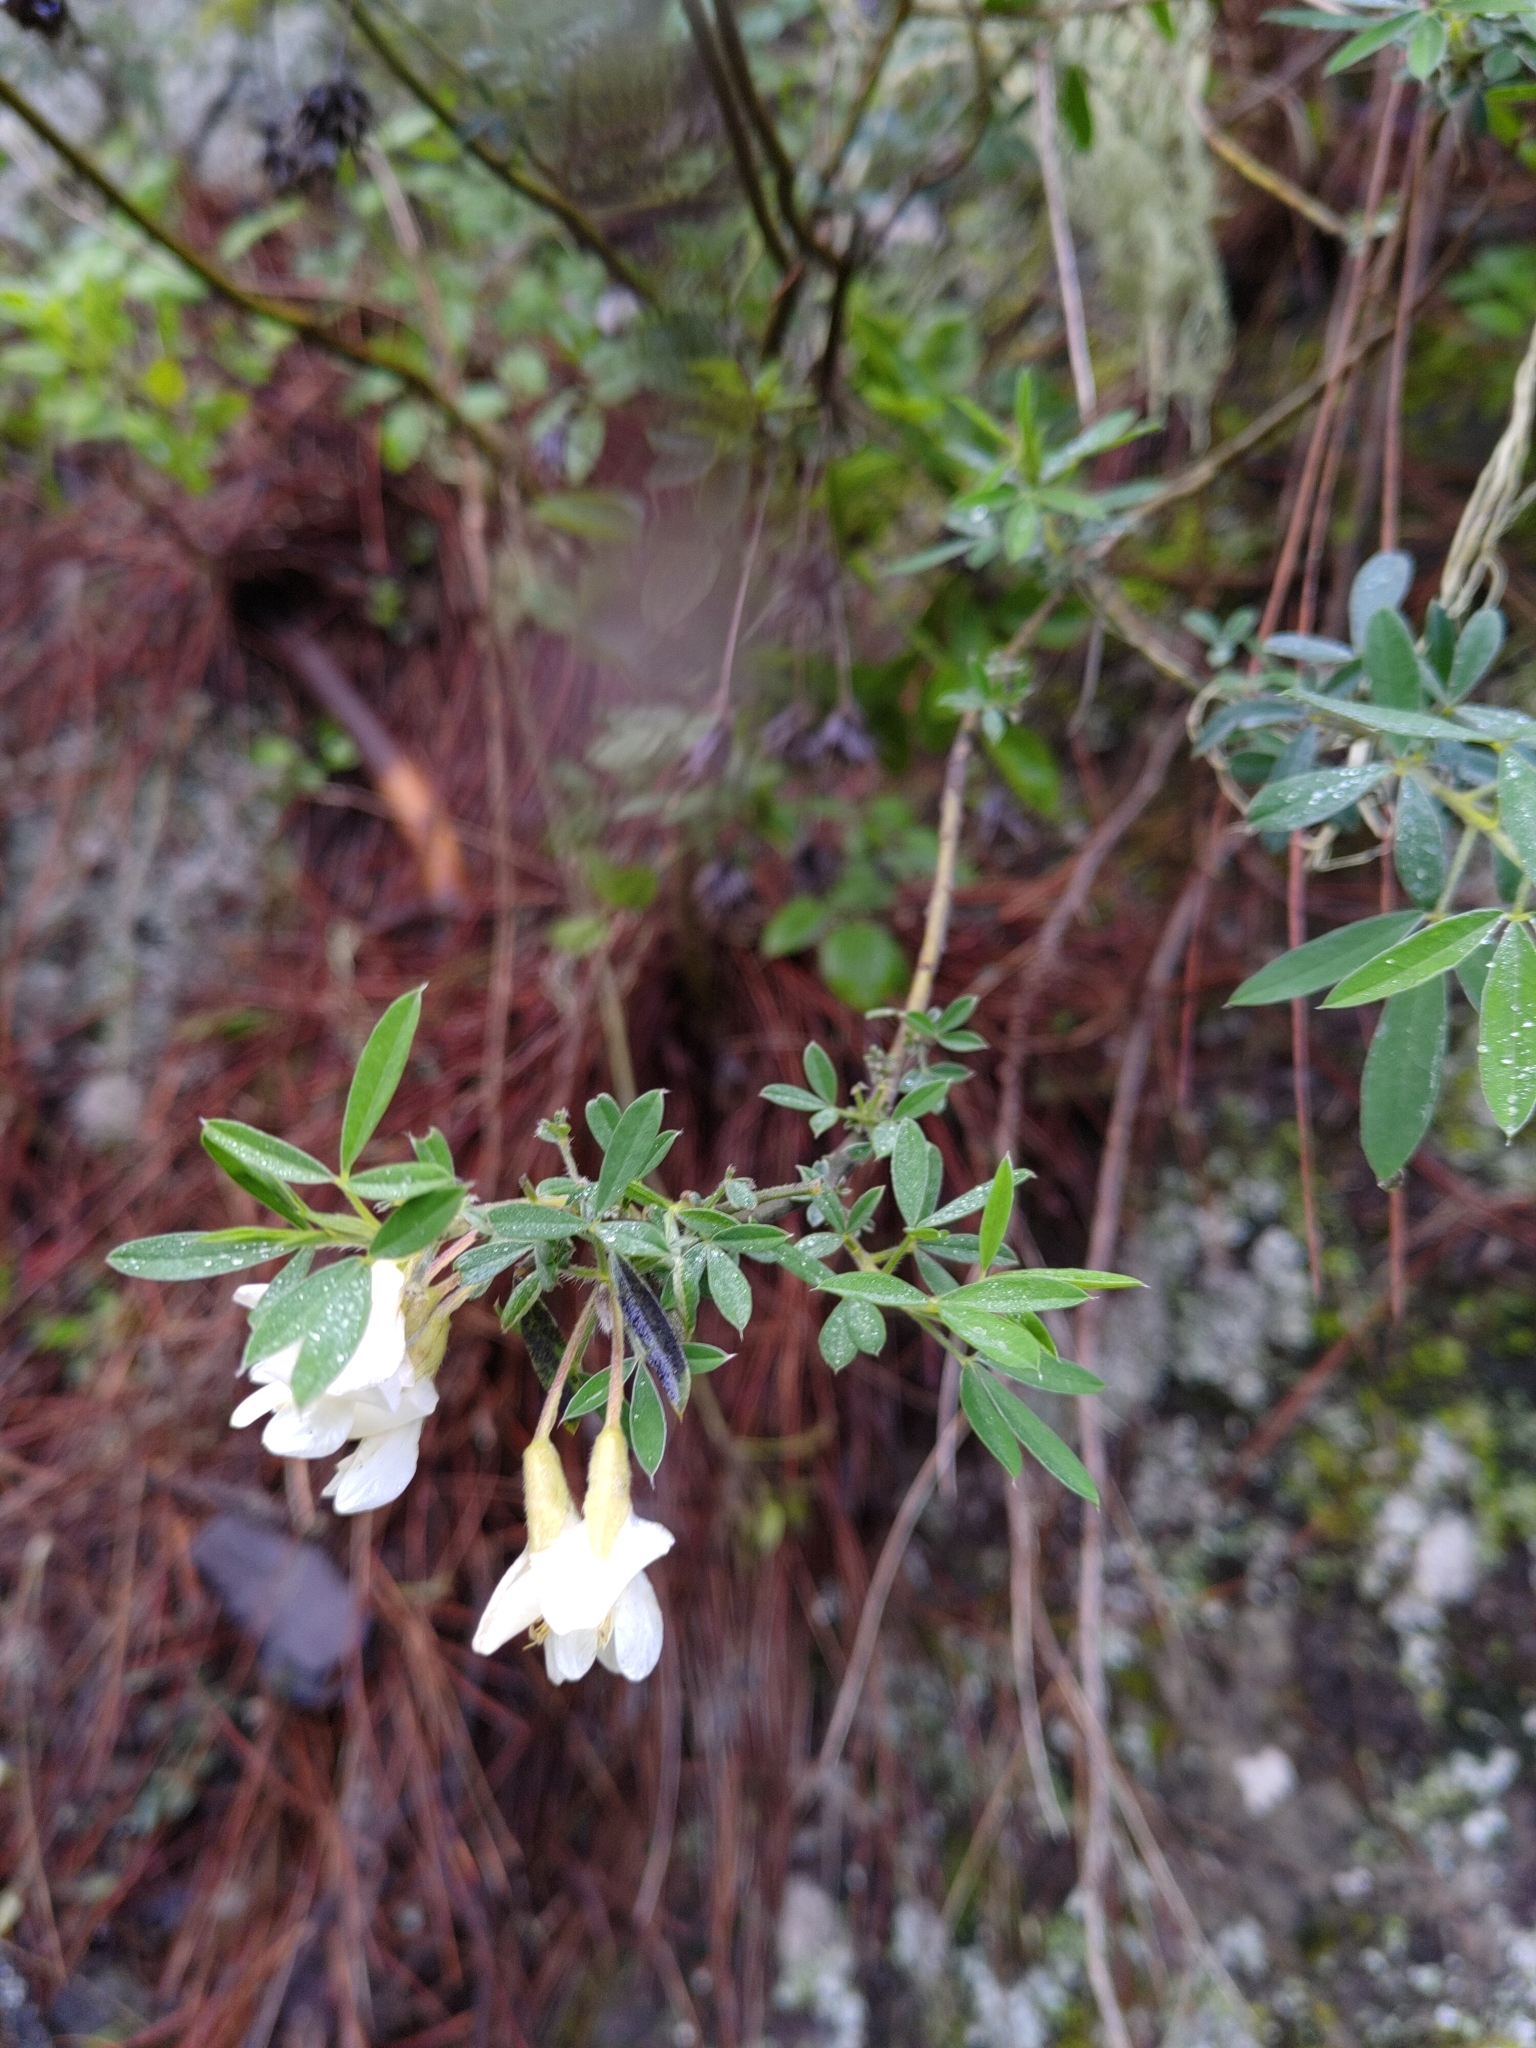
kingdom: Plantae
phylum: Tracheophyta
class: Magnoliopsida
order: Fabales
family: Fabaceae
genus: Chamaecytisus
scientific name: Chamaecytisus prolifer
